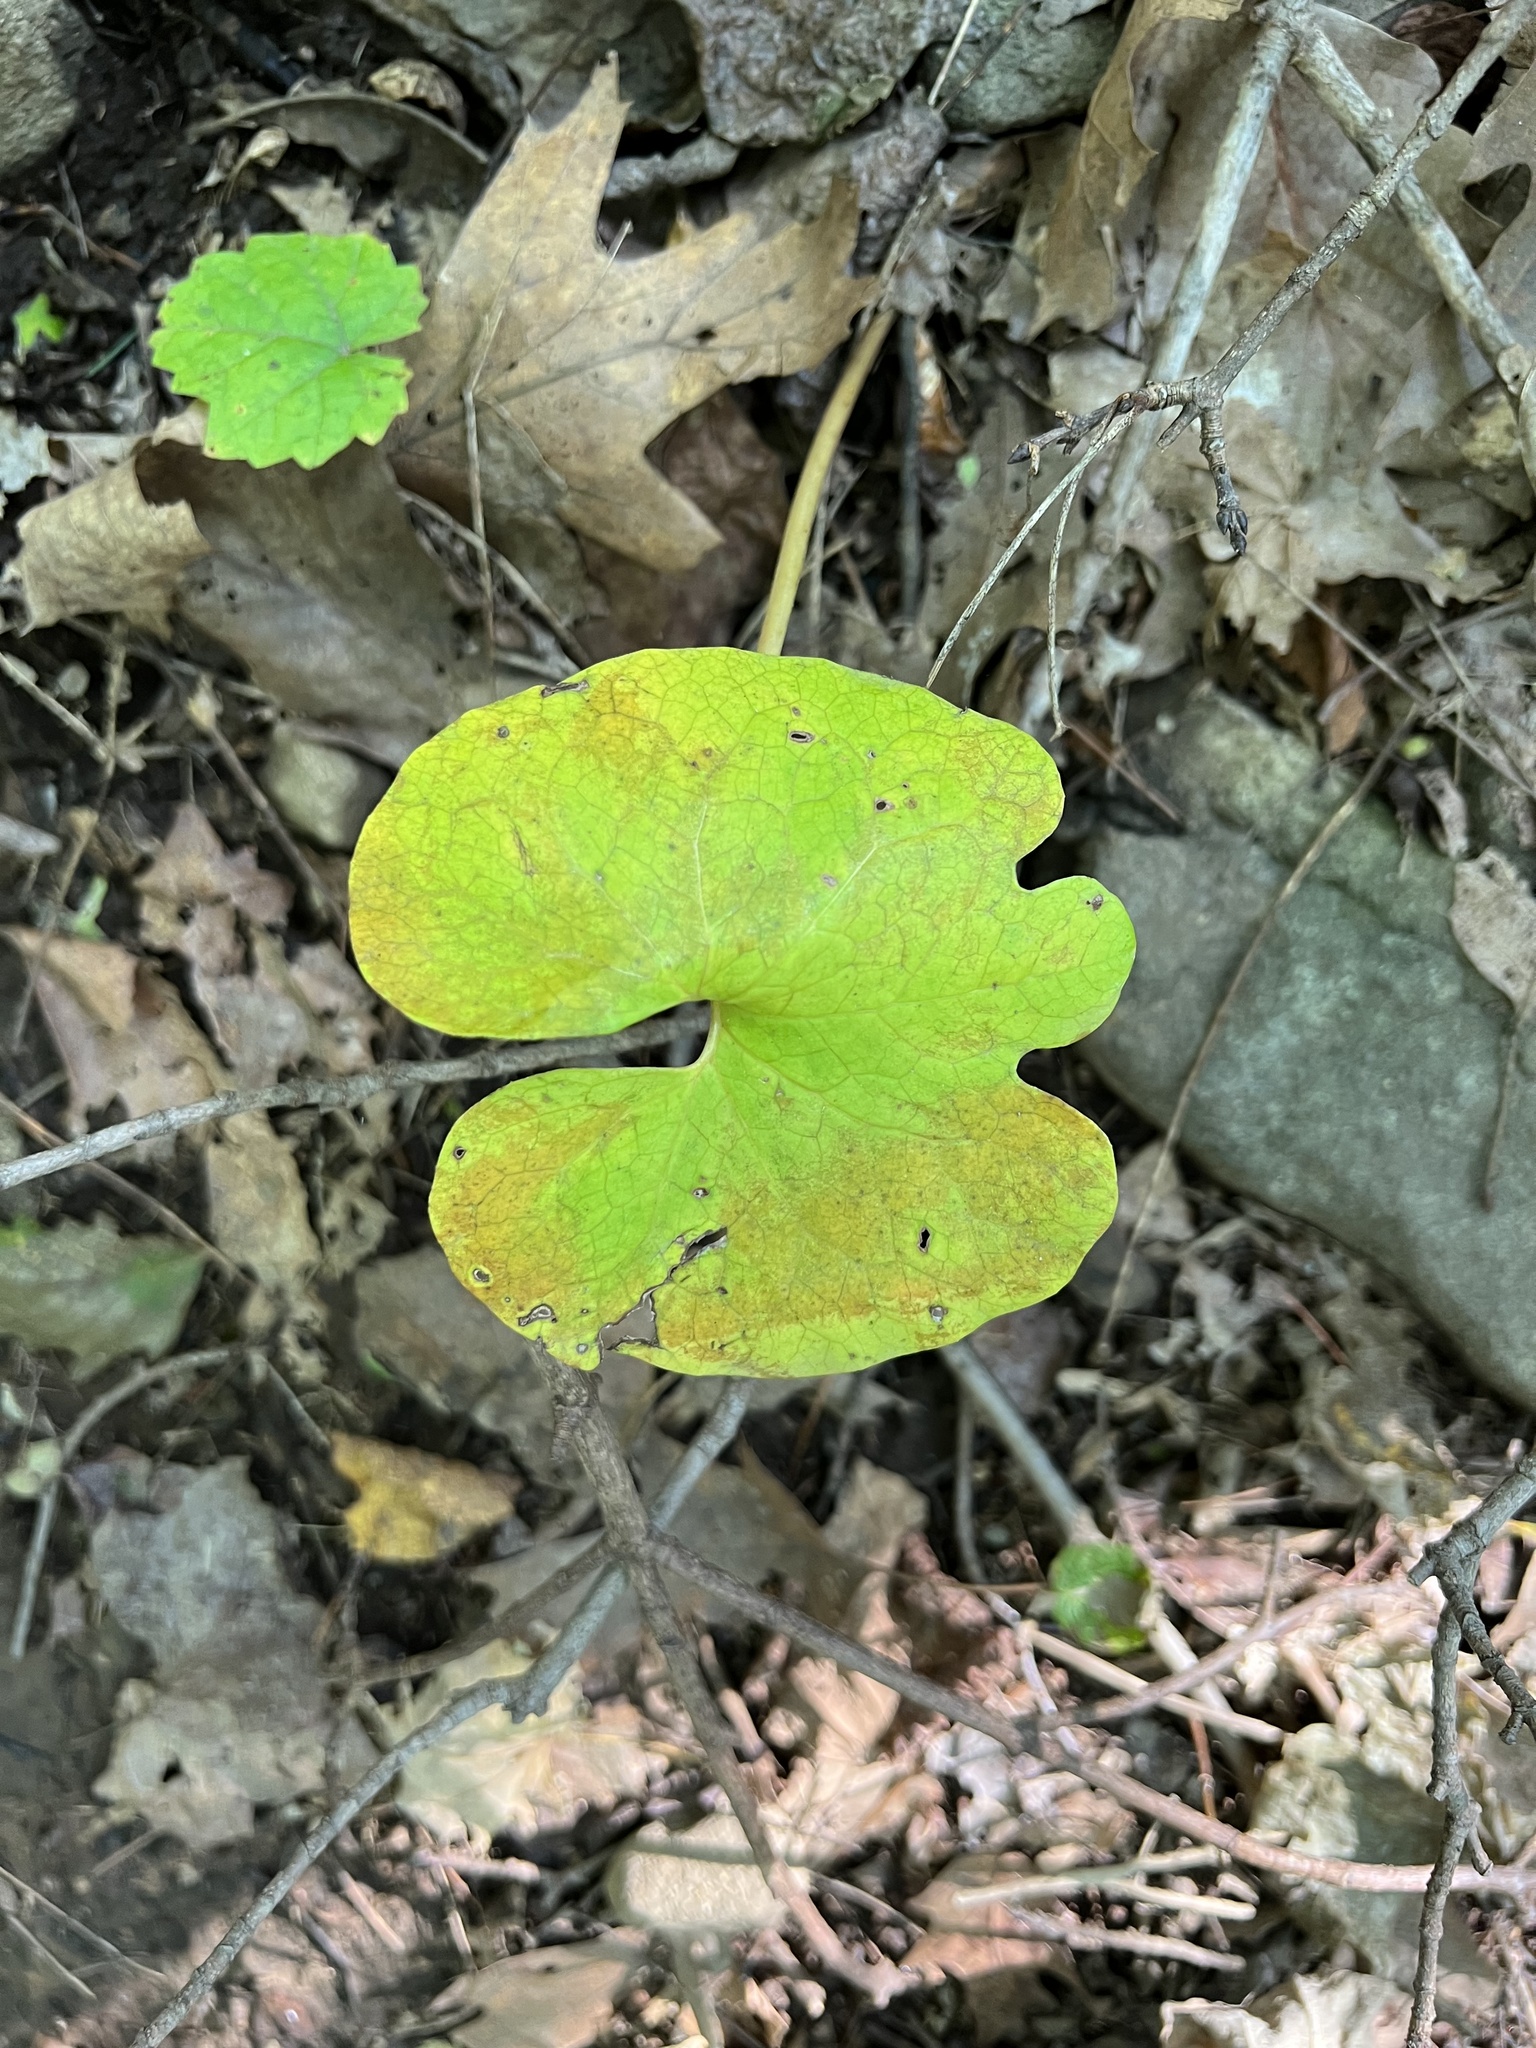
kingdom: Plantae
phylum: Tracheophyta
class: Magnoliopsida
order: Ranunculales
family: Papaveraceae
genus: Sanguinaria
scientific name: Sanguinaria canadensis
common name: Bloodroot
